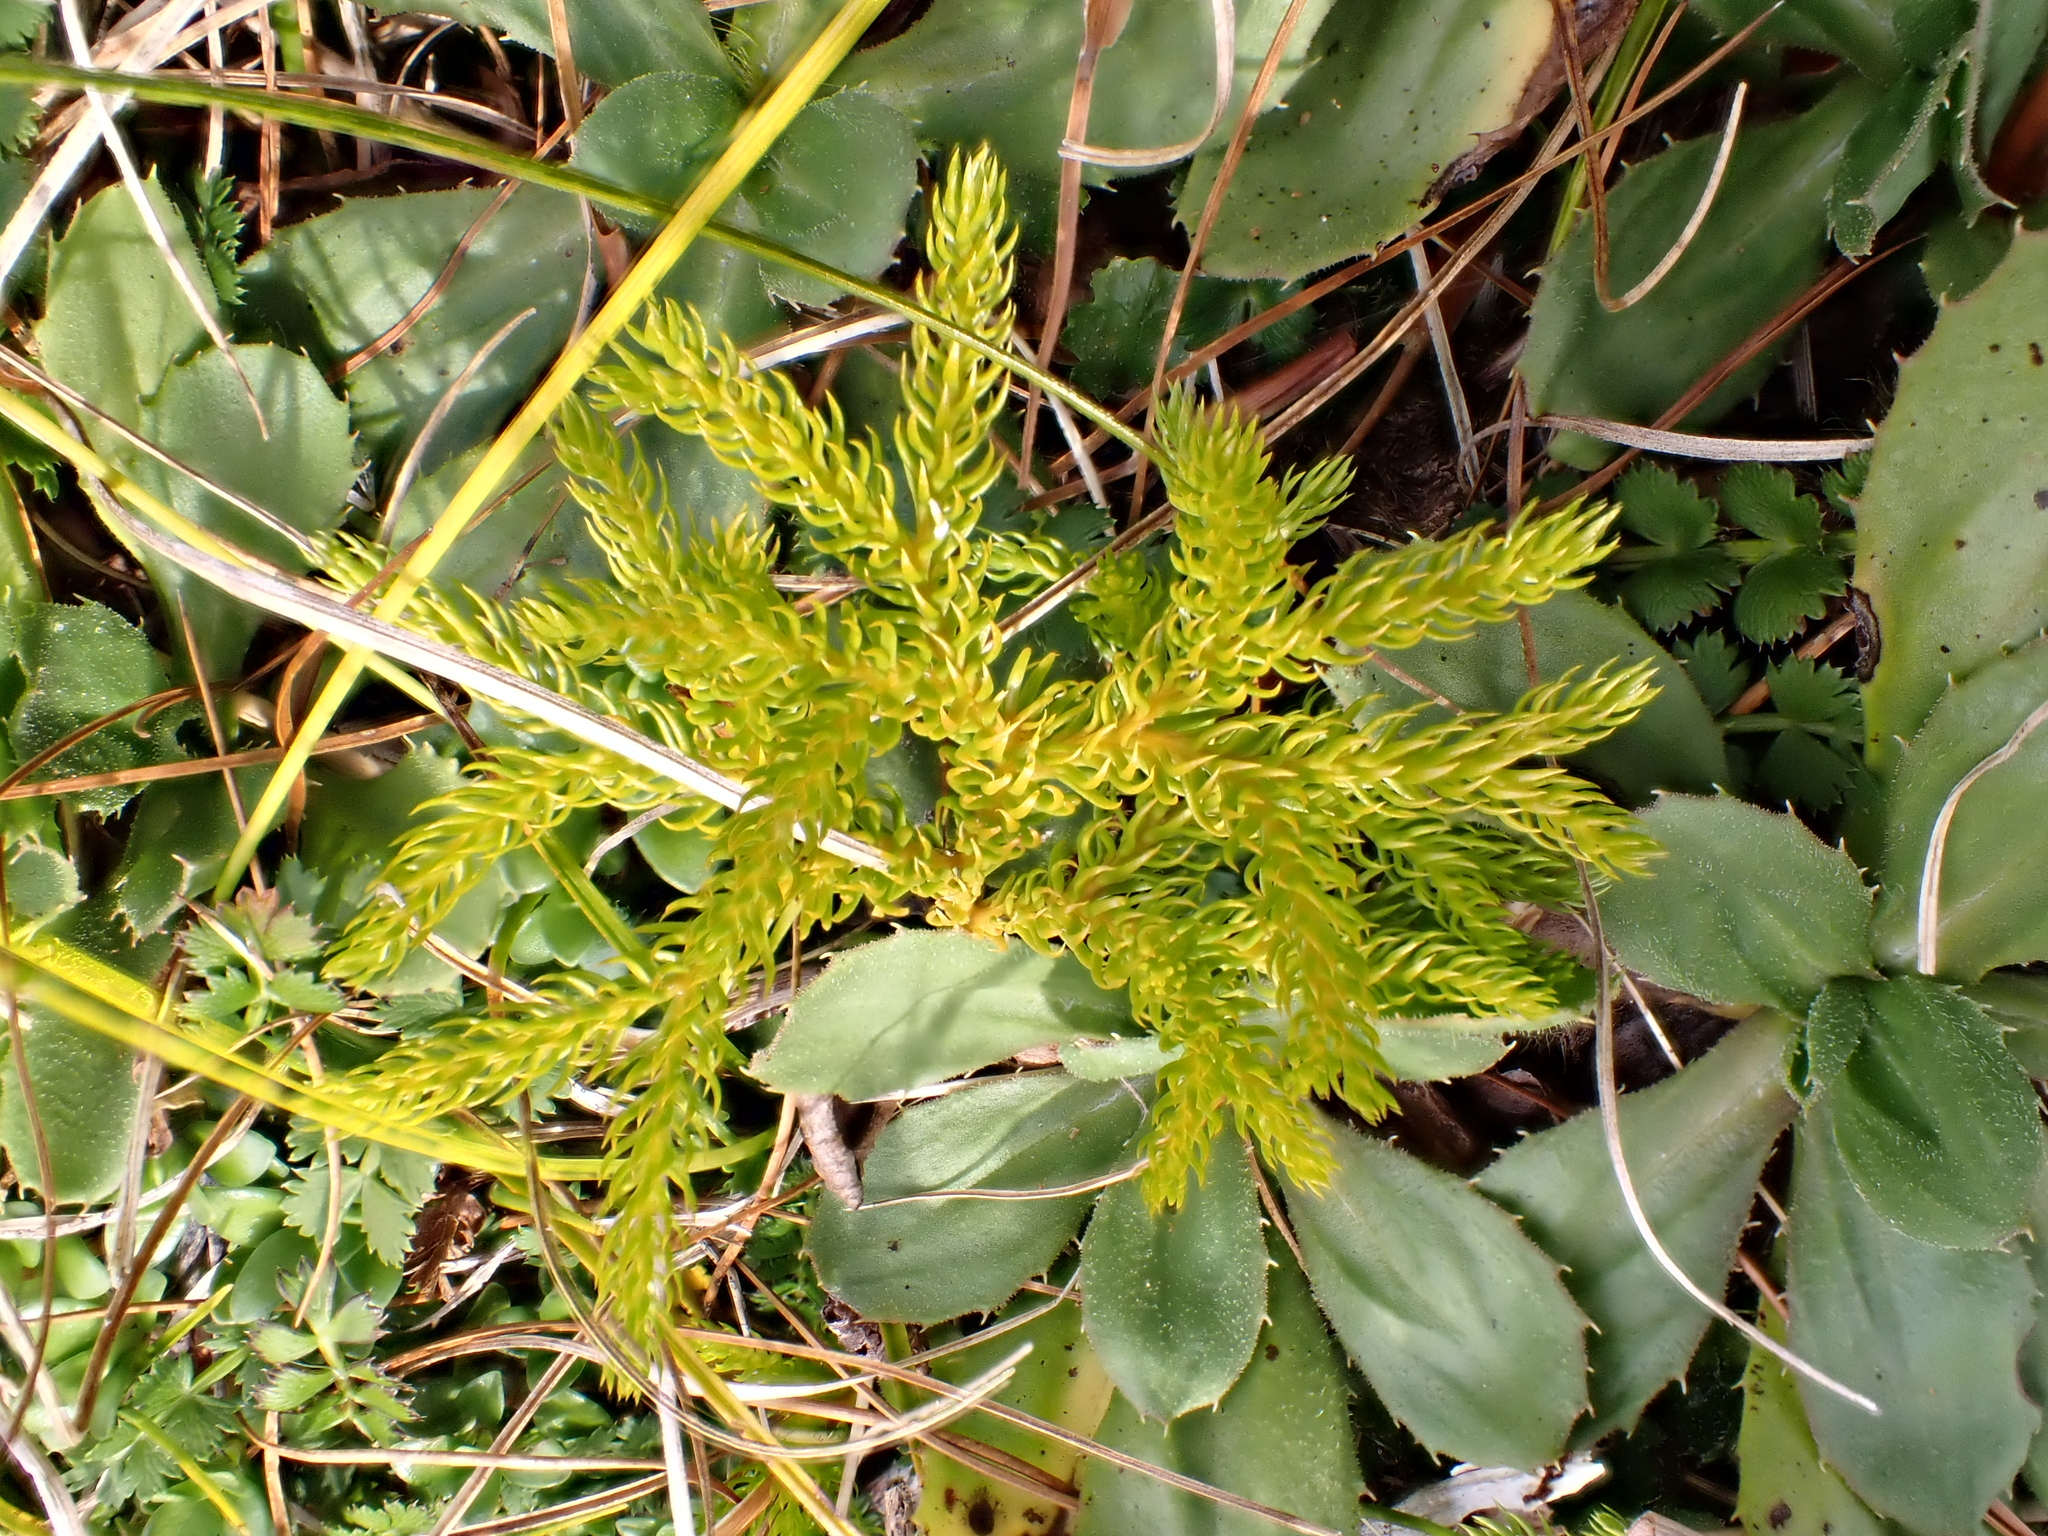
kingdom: Plantae
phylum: Tracheophyta
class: Lycopodiopsida
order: Lycopodiales
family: Lycopodiaceae
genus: Austrolycopodium
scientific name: Austrolycopodium fastigiatum
